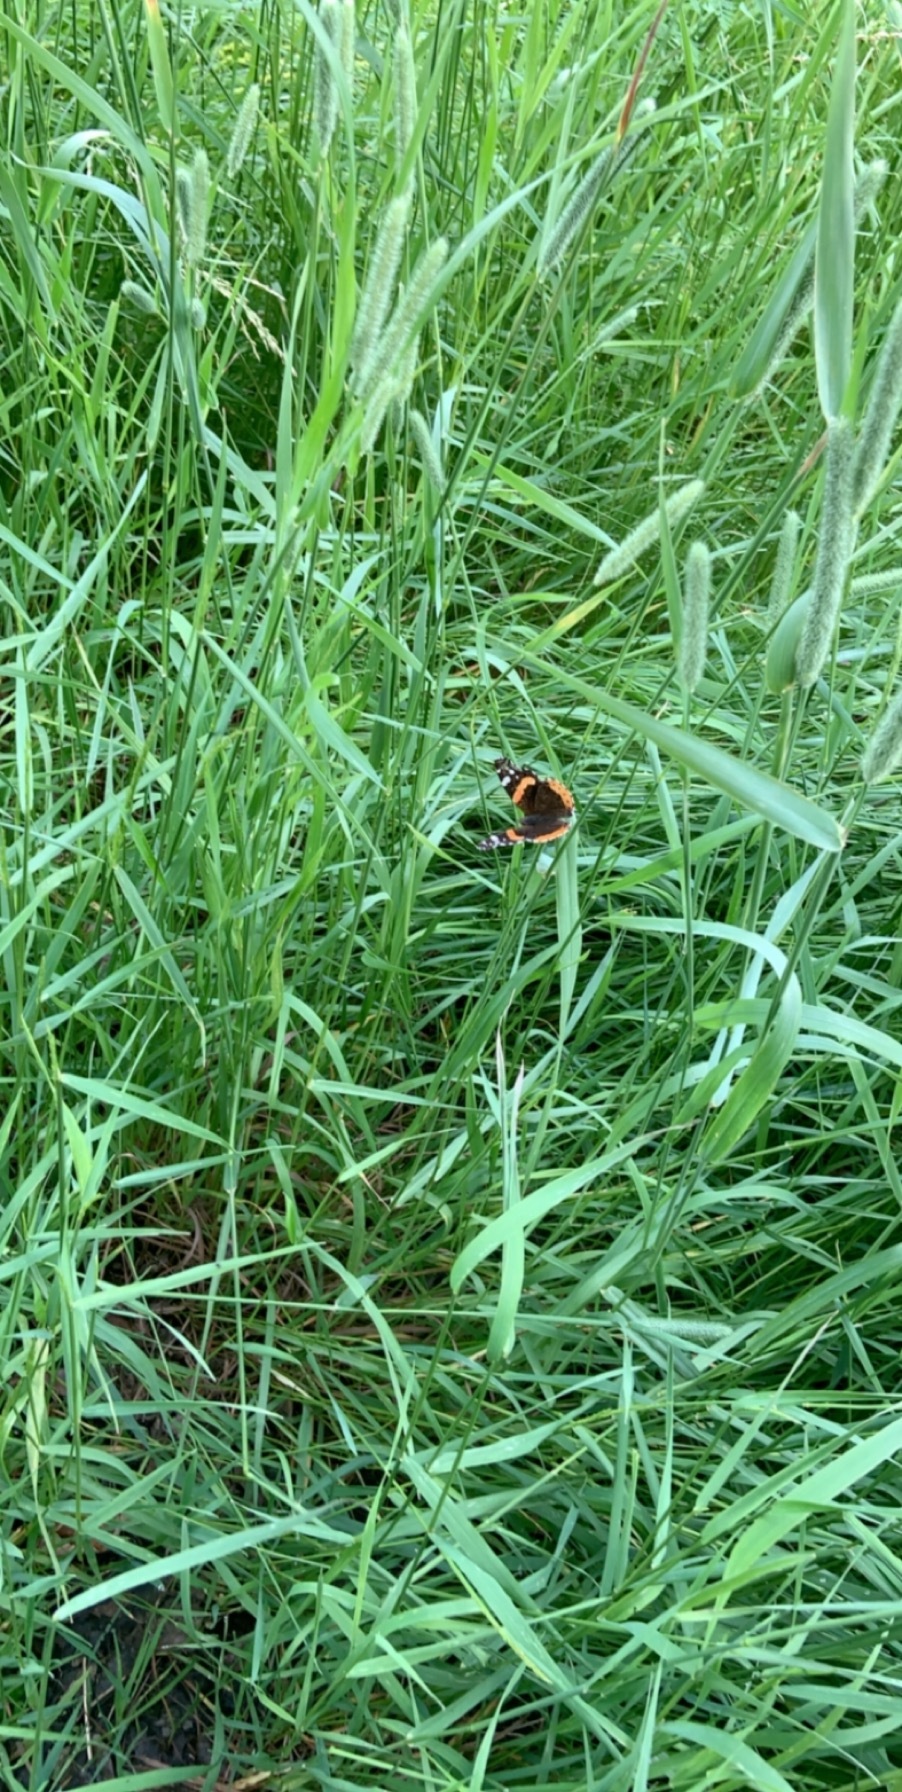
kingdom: Animalia
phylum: Arthropoda
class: Insecta
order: Lepidoptera
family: Nymphalidae
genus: Vanessa
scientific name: Vanessa atalanta
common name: Red admiral
